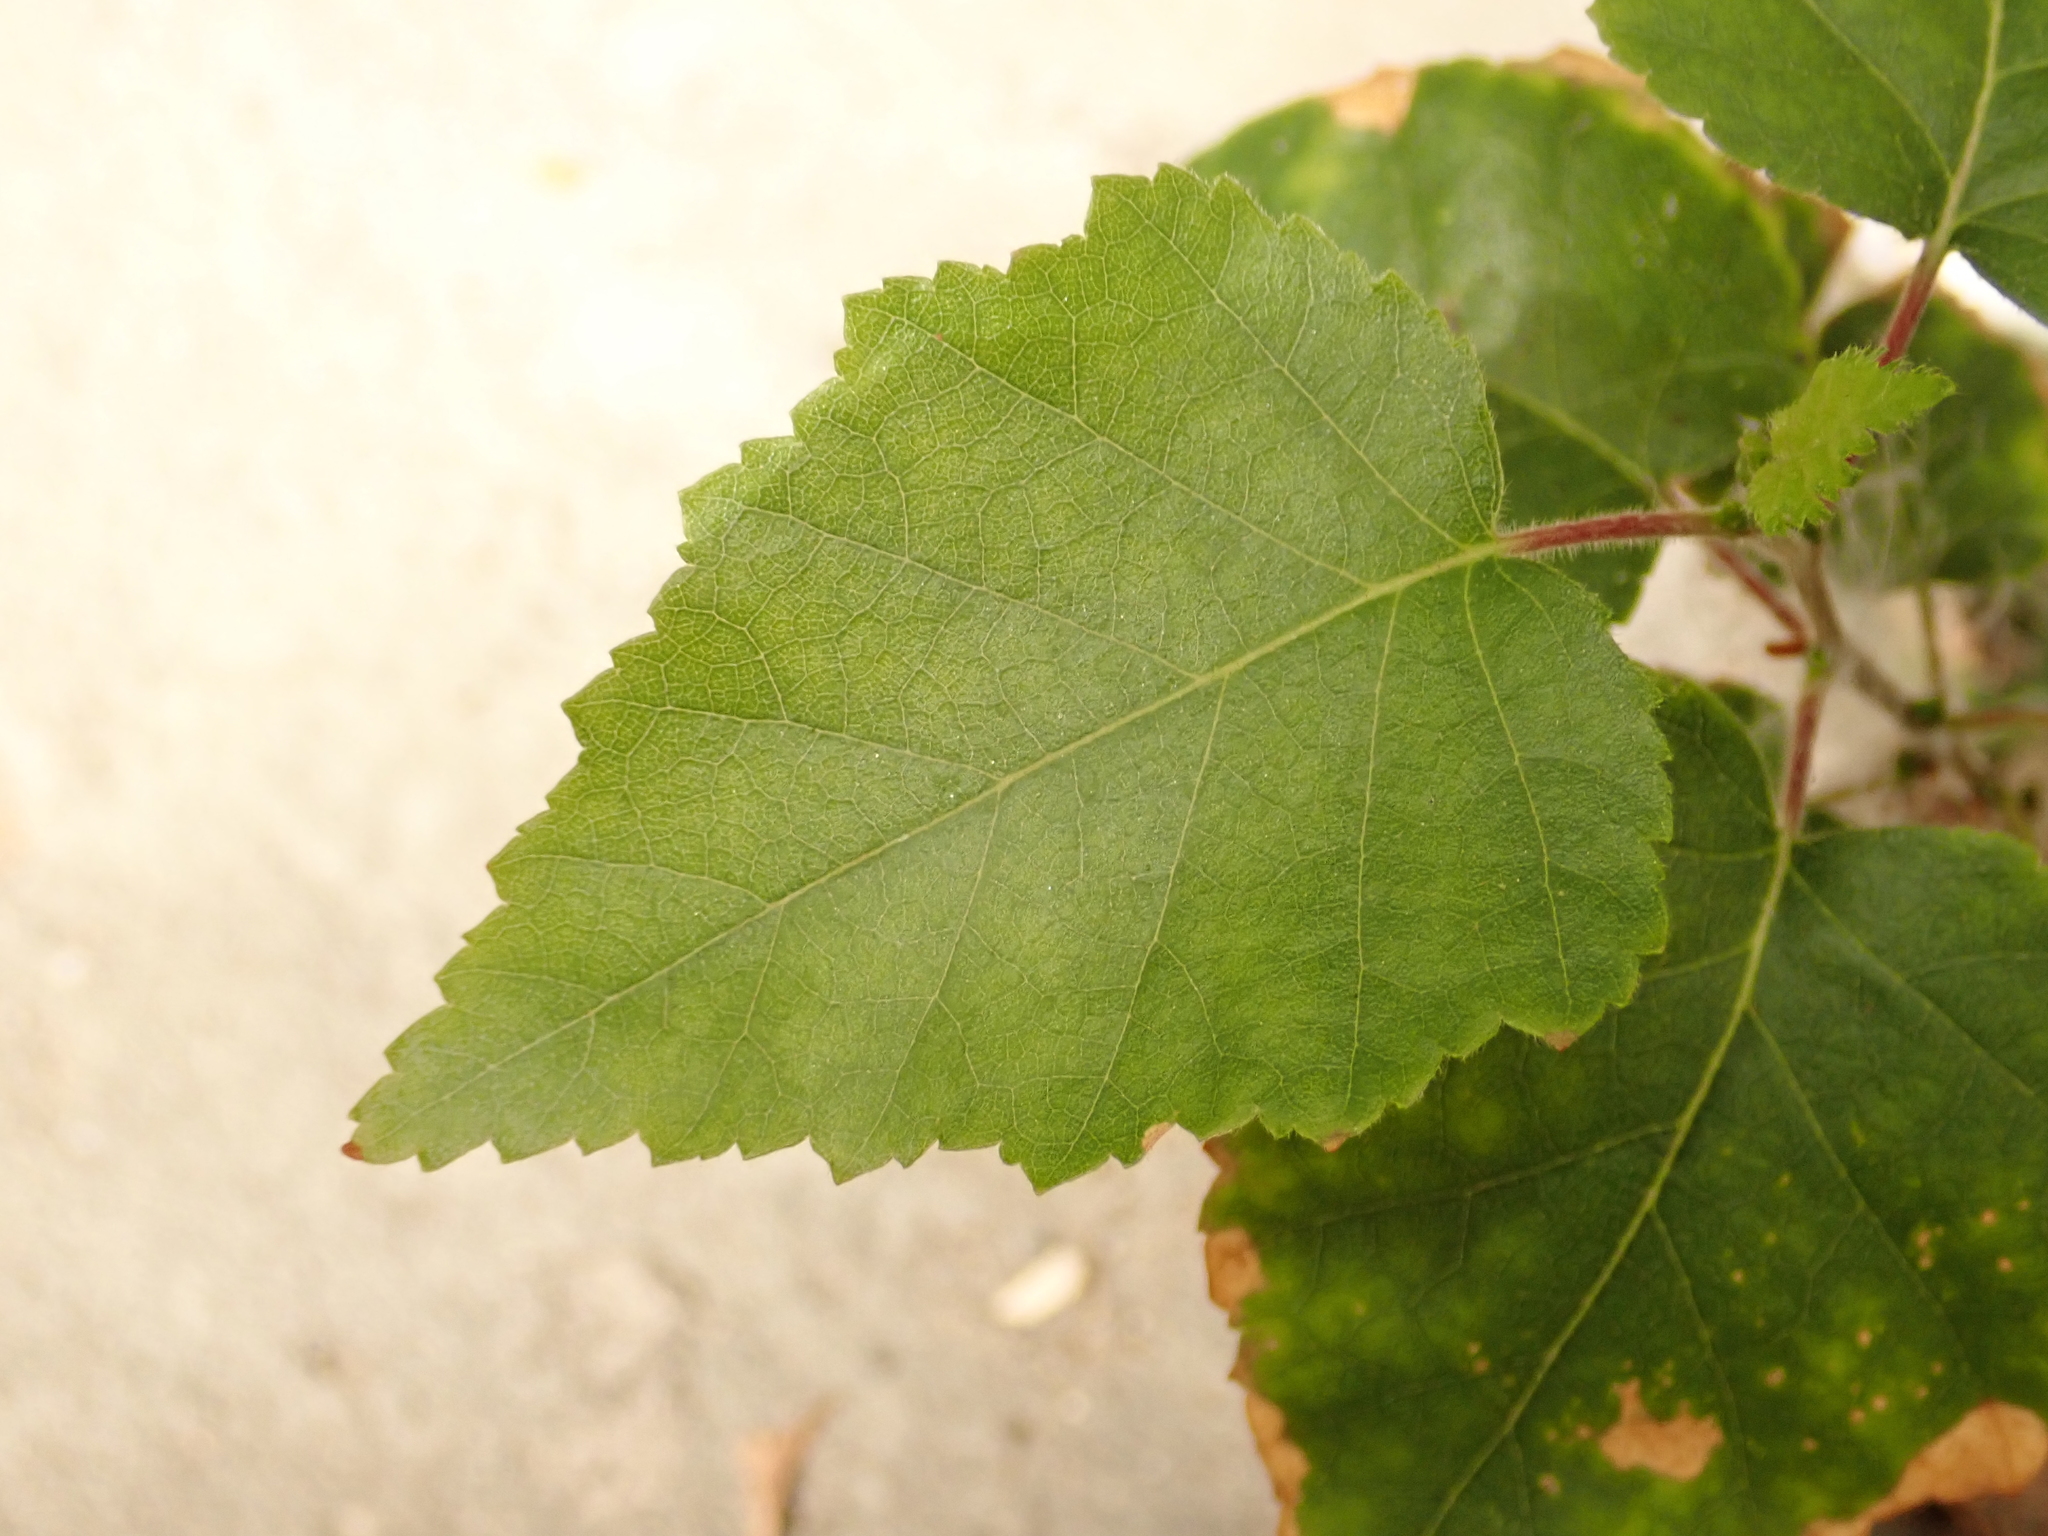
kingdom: Plantae
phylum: Tracheophyta
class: Magnoliopsida
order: Fagales
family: Betulaceae
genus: Betula
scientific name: Betula pendula
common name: Silver birch
